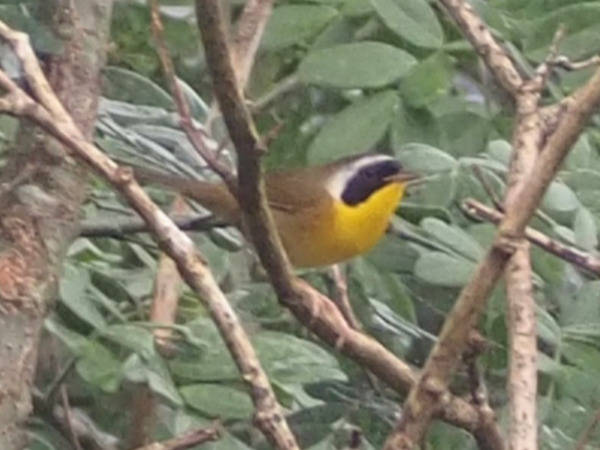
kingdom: Animalia
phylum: Chordata
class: Aves
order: Passeriformes
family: Parulidae
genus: Geothlypis
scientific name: Geothlypis trichas
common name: Common yellowthroat
